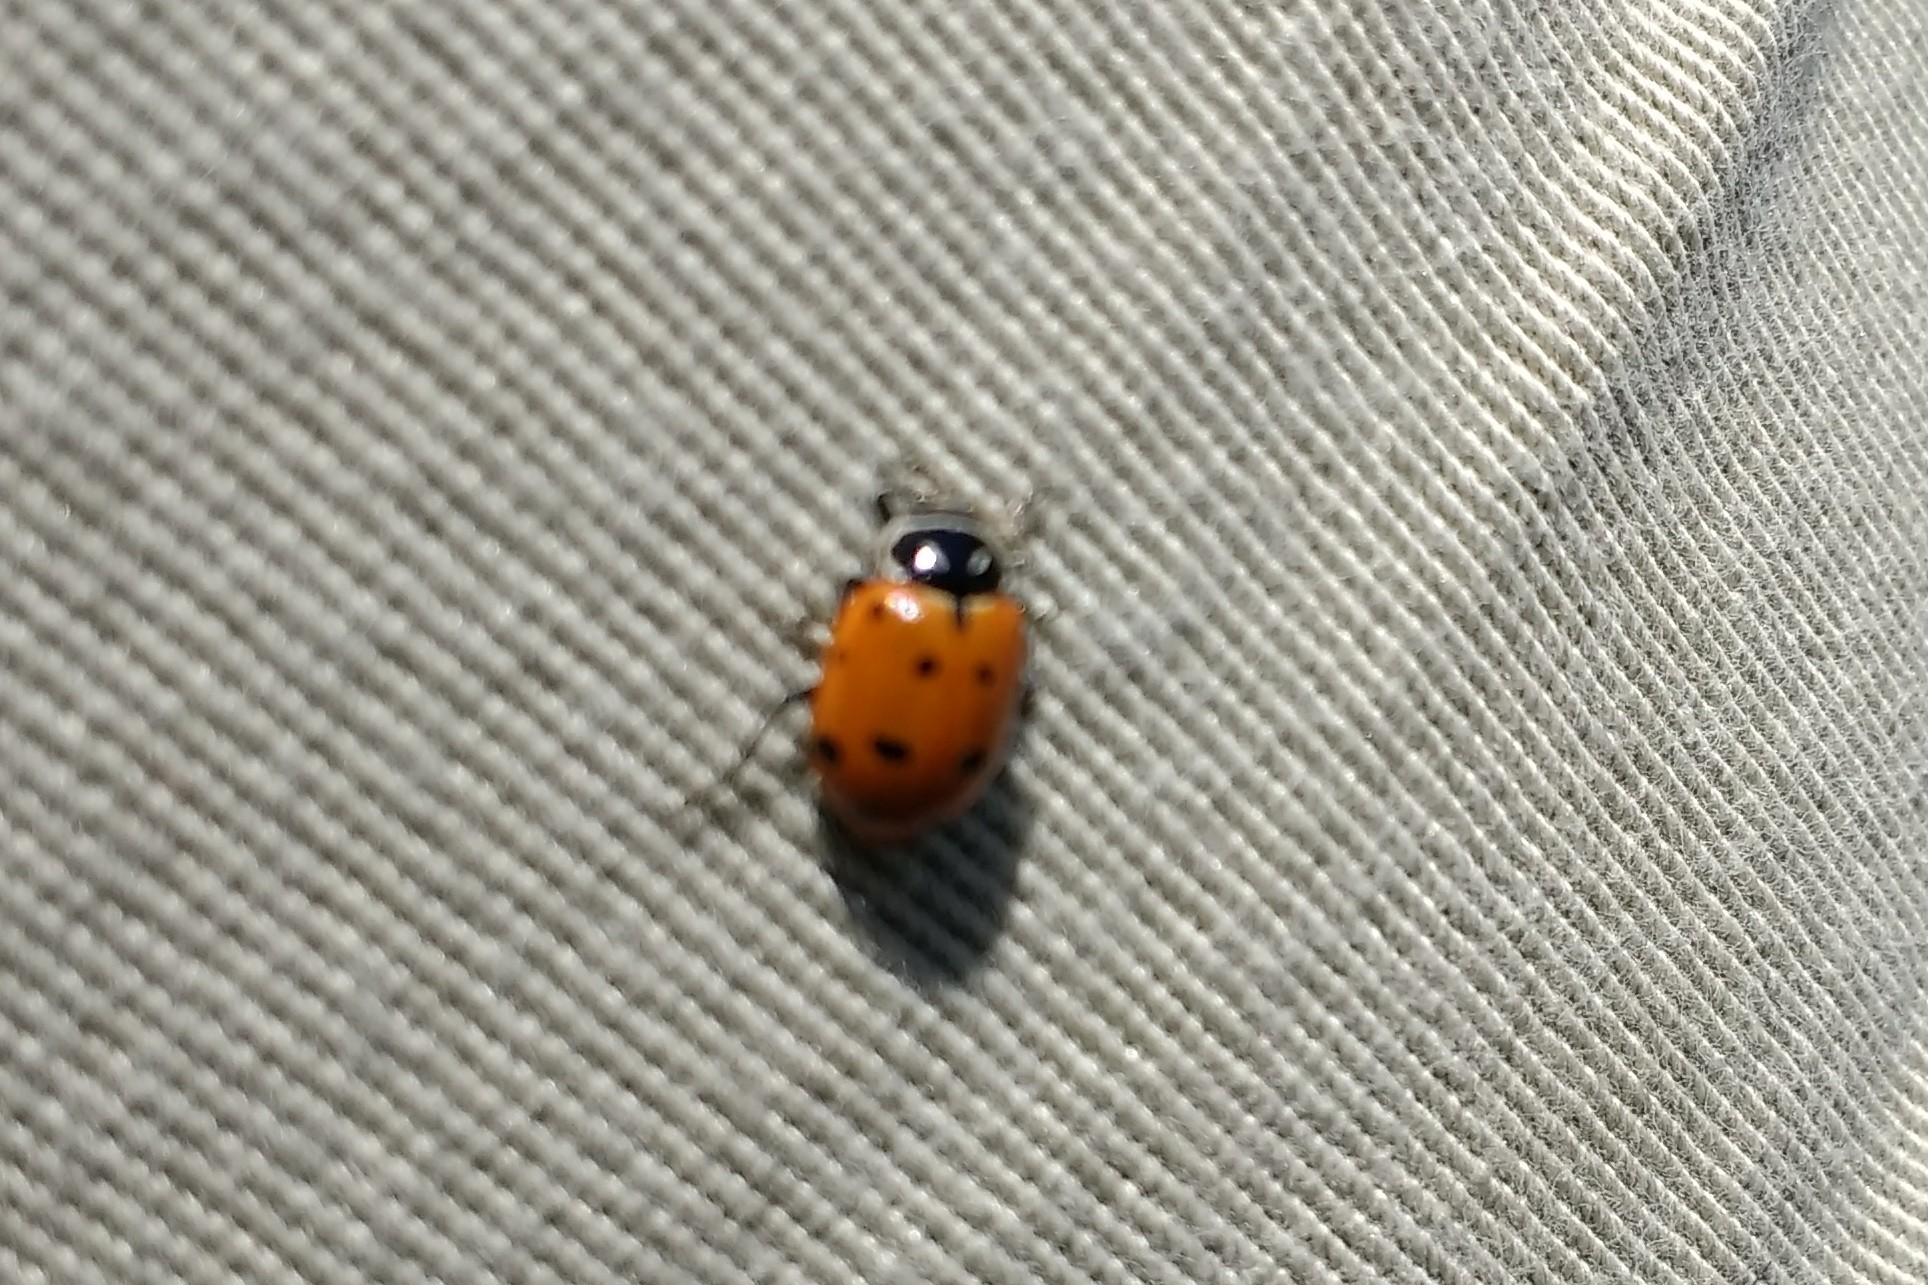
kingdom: Animalia
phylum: Arthropoda
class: Insecta
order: Coleoptera
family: Coccinellidae
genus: Hippodamia
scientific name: Hippodamia convergens
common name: Convergent lady beetle
